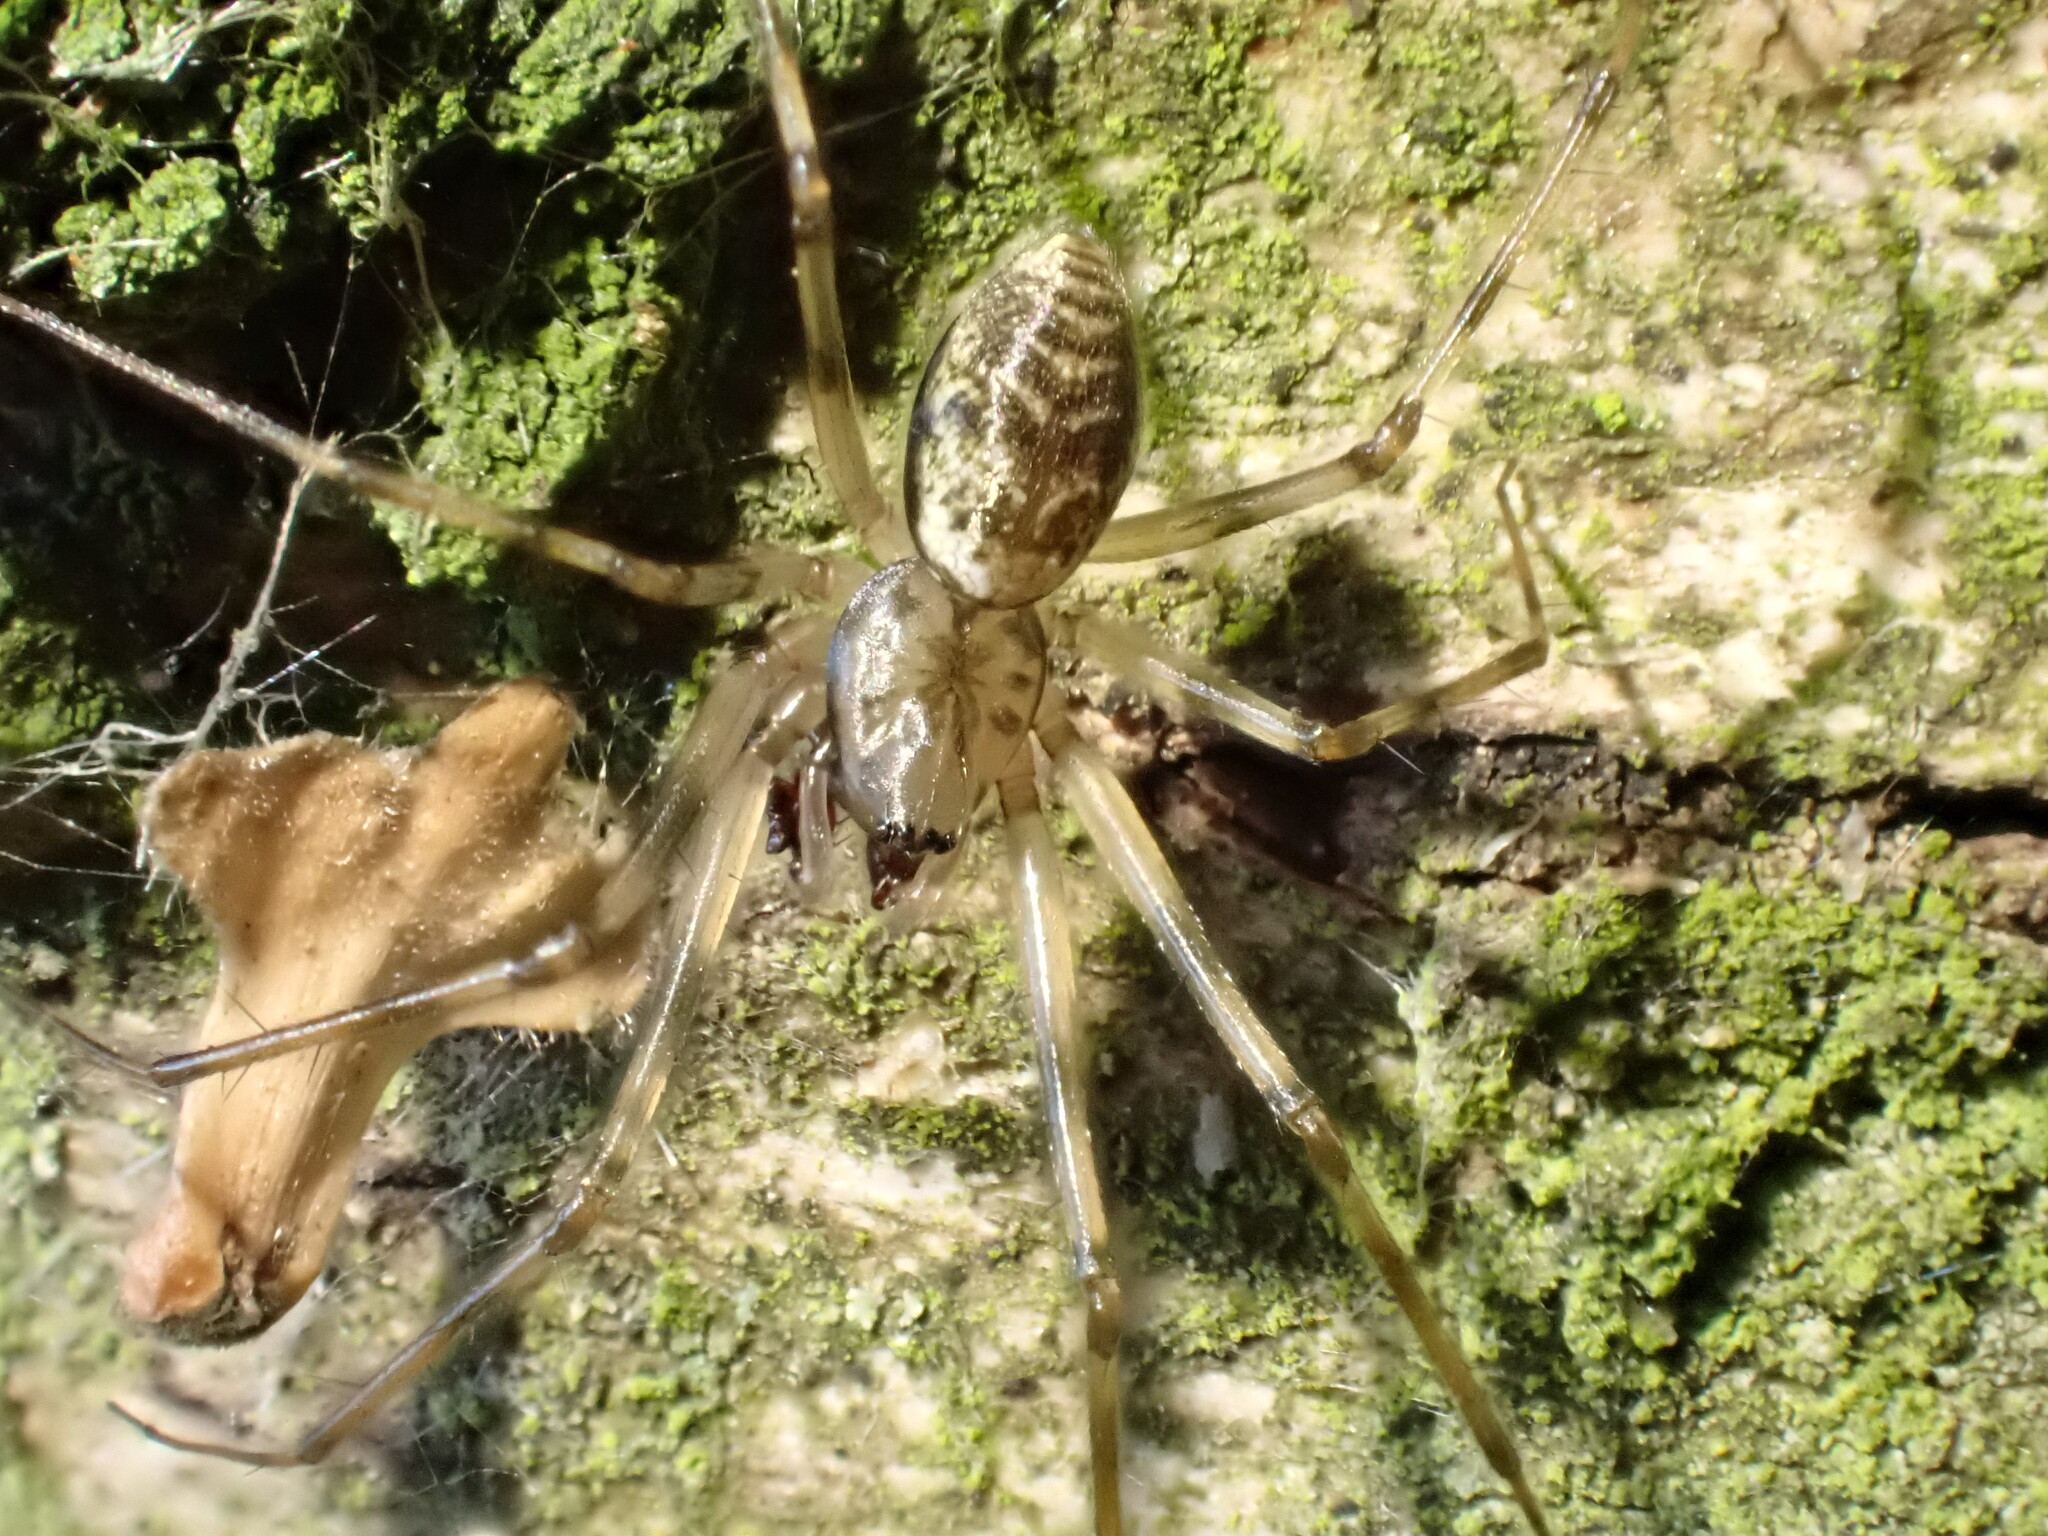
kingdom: Animalia
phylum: Arthropoda
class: Arachnida
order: Araneae
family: Linyphiidae
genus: Drapetisca
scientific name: Drapetisca socialis
